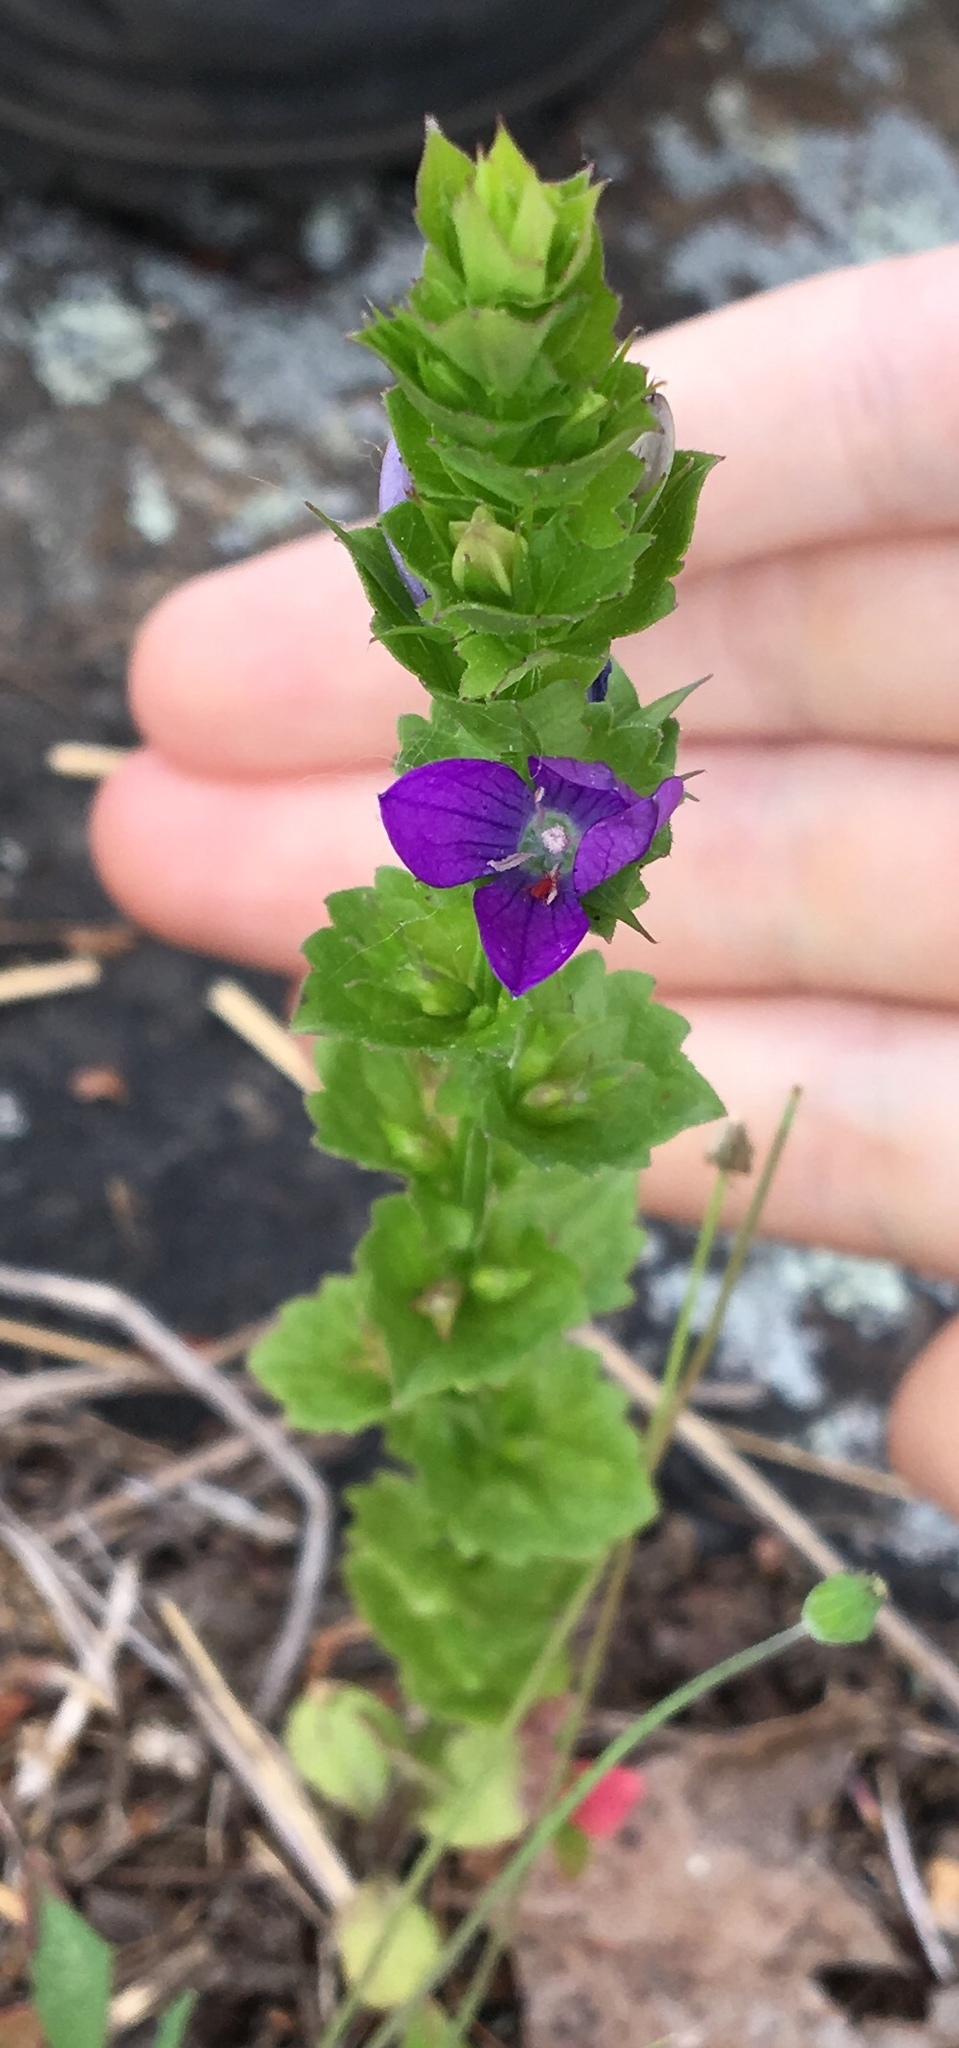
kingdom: Plantae
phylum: Tracheophyta
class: Magnoliopsida
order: Asterales
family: Campanulaceae
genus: Triodanis
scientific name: Triodanis perfoliata
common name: Clasping venus' looking-glass
